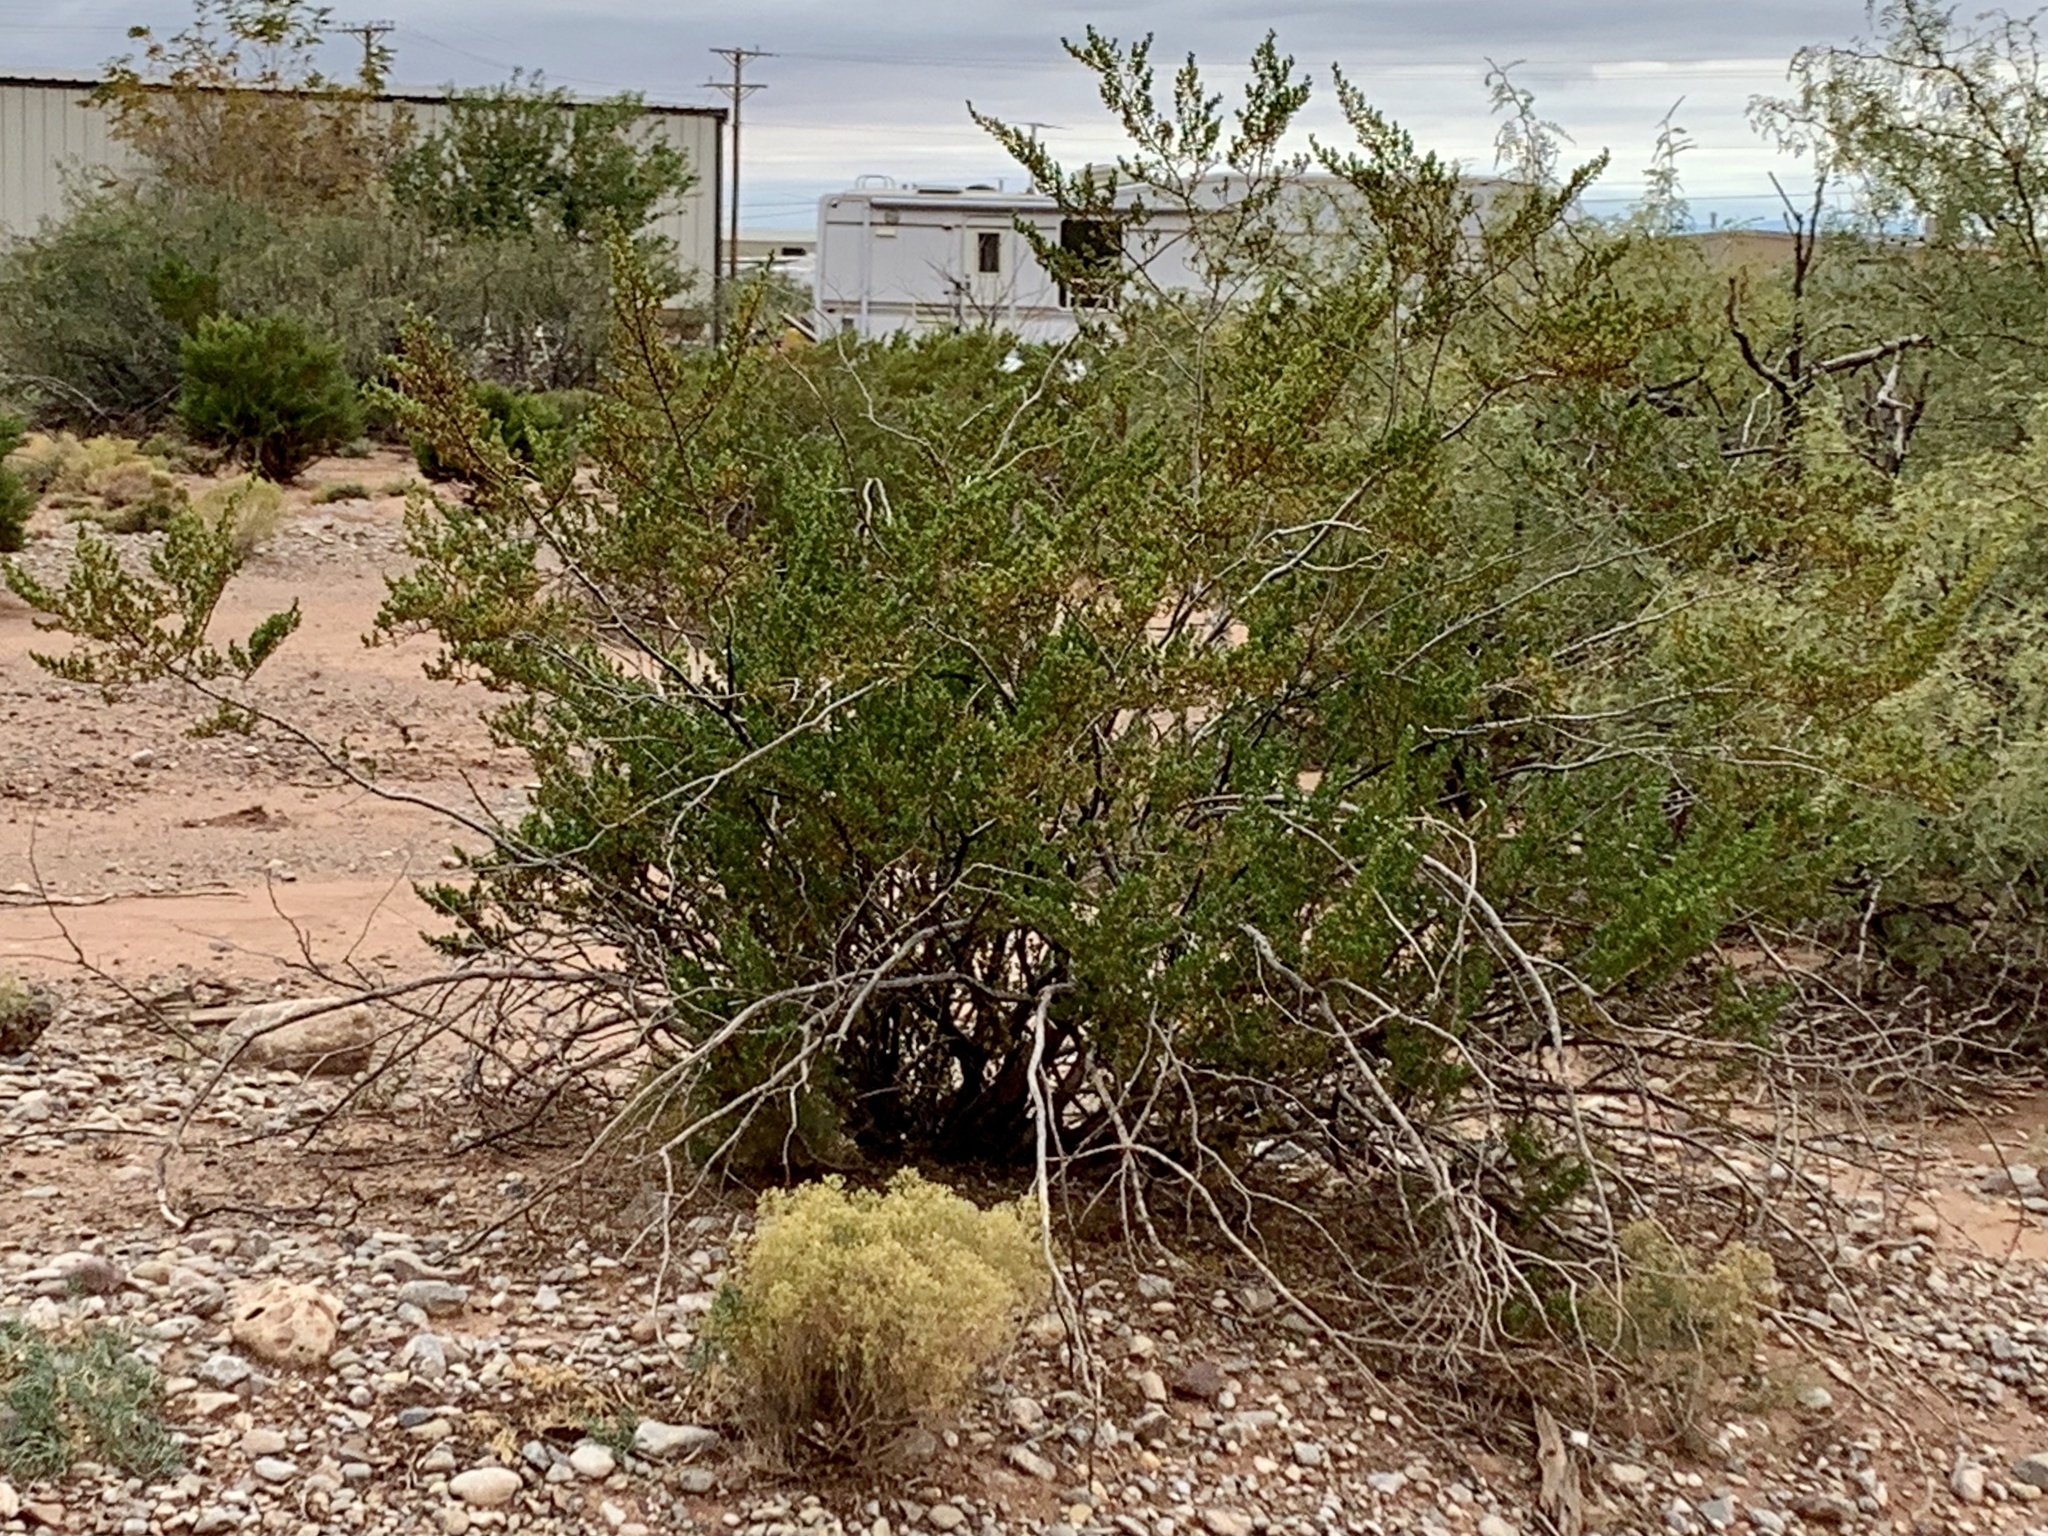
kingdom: Plantae
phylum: Tracheophyta
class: Magnoliopsida
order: Zygophyllales
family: Zygophyllaceae
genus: Larrea
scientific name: Larrea tridentata
